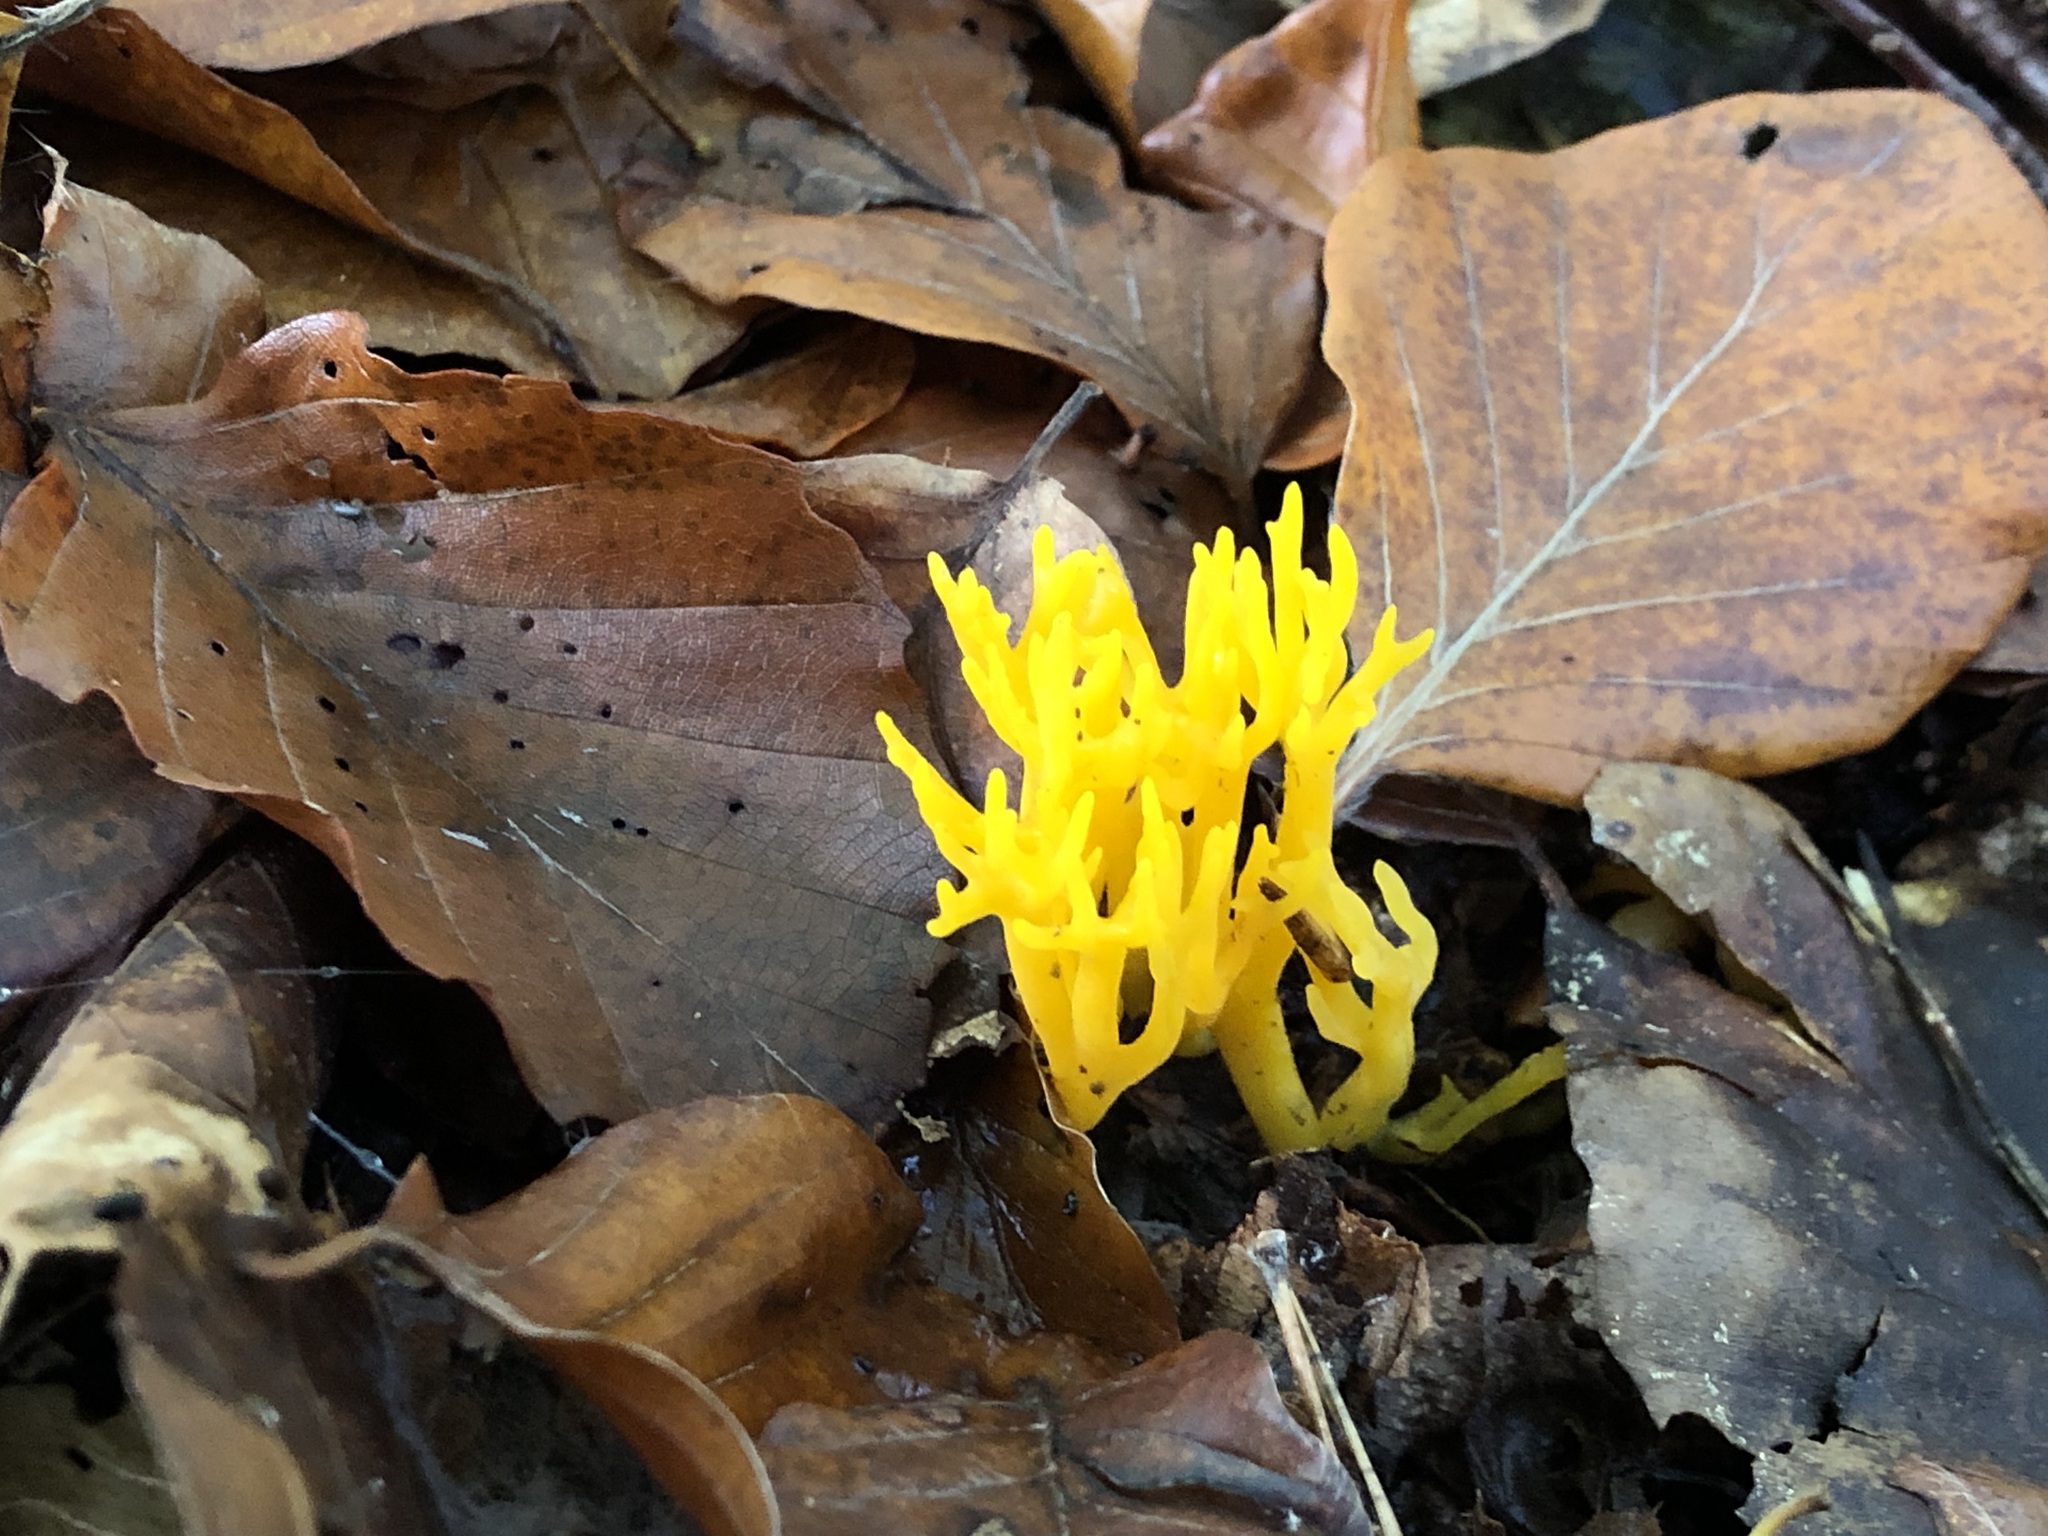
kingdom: Fungi
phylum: Basidiomycota
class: Dacrymycetes
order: Dacrymycetales
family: Dacrymycetaceae
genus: Calocera
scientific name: Calocera viscosa
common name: Yellow stagshorn
